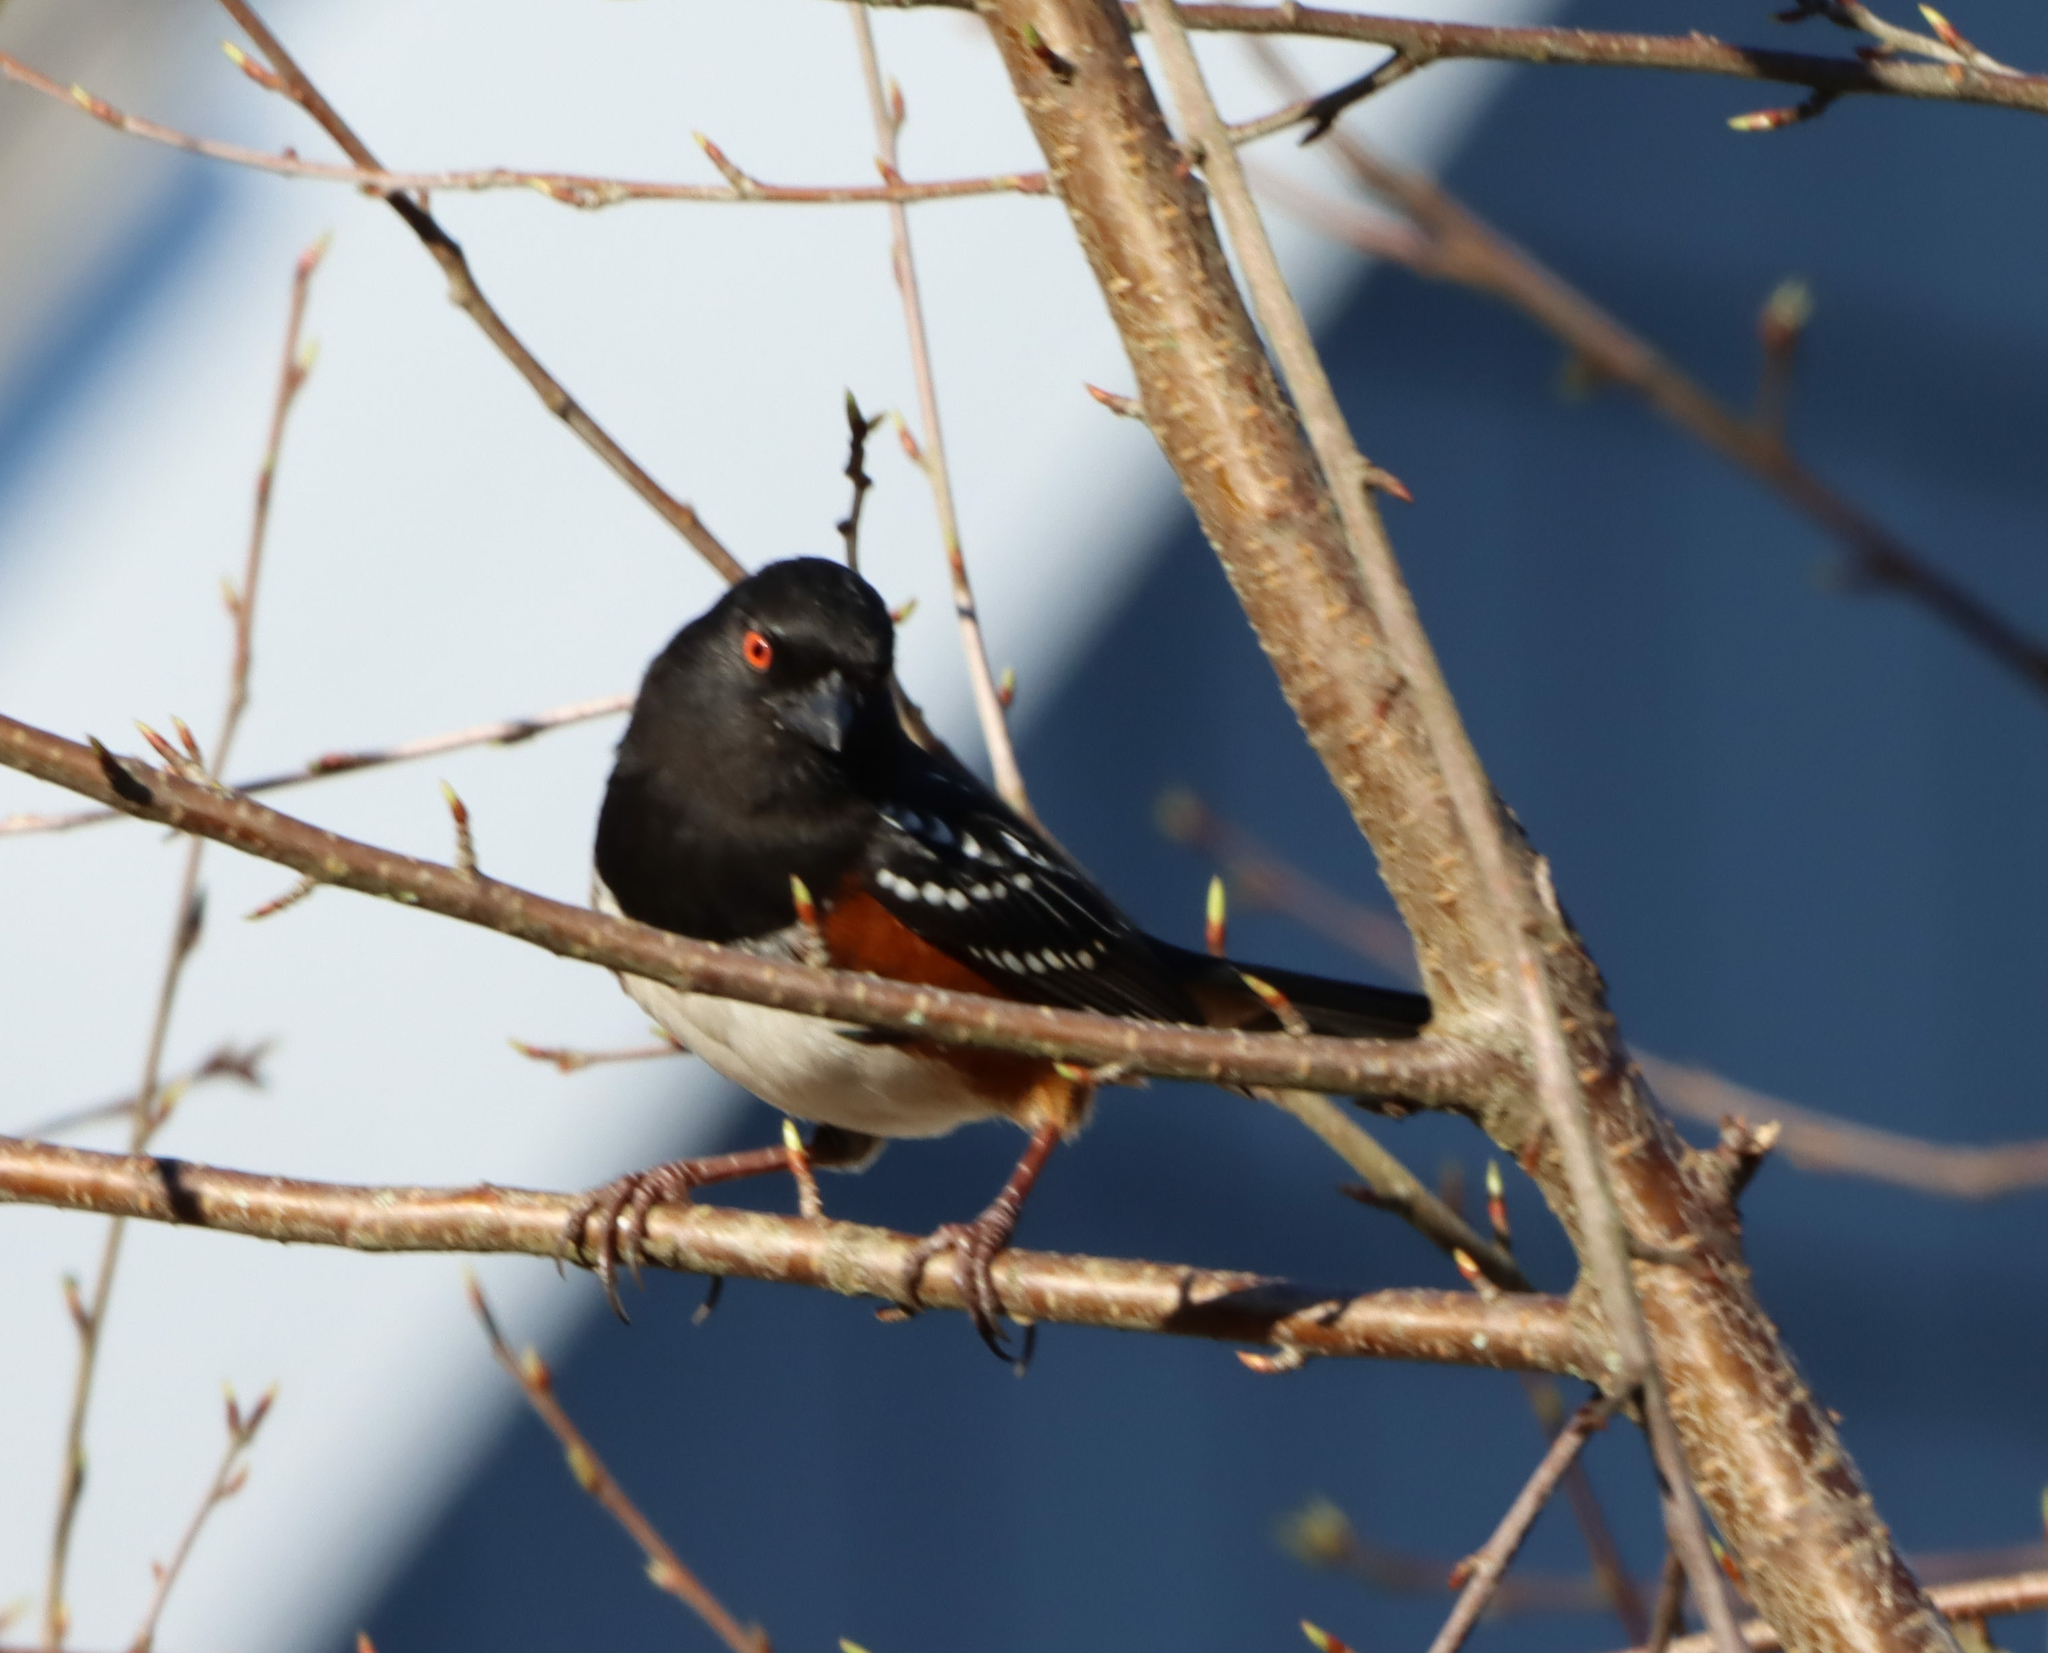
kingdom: Animalia
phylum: Chordata
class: Aves
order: Passeriformes
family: Passerellidae
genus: Pipilo
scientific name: Pipilo maculatus
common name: Spotted towhee
